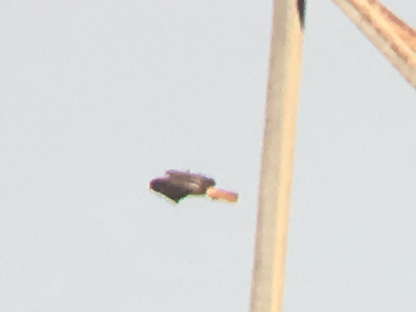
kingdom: Animalia
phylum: Chordata
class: Aves
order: Accipitriformes
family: Accipitridae
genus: Buteo
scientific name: Buteo jamaicensis
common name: Red-tailed hawk
